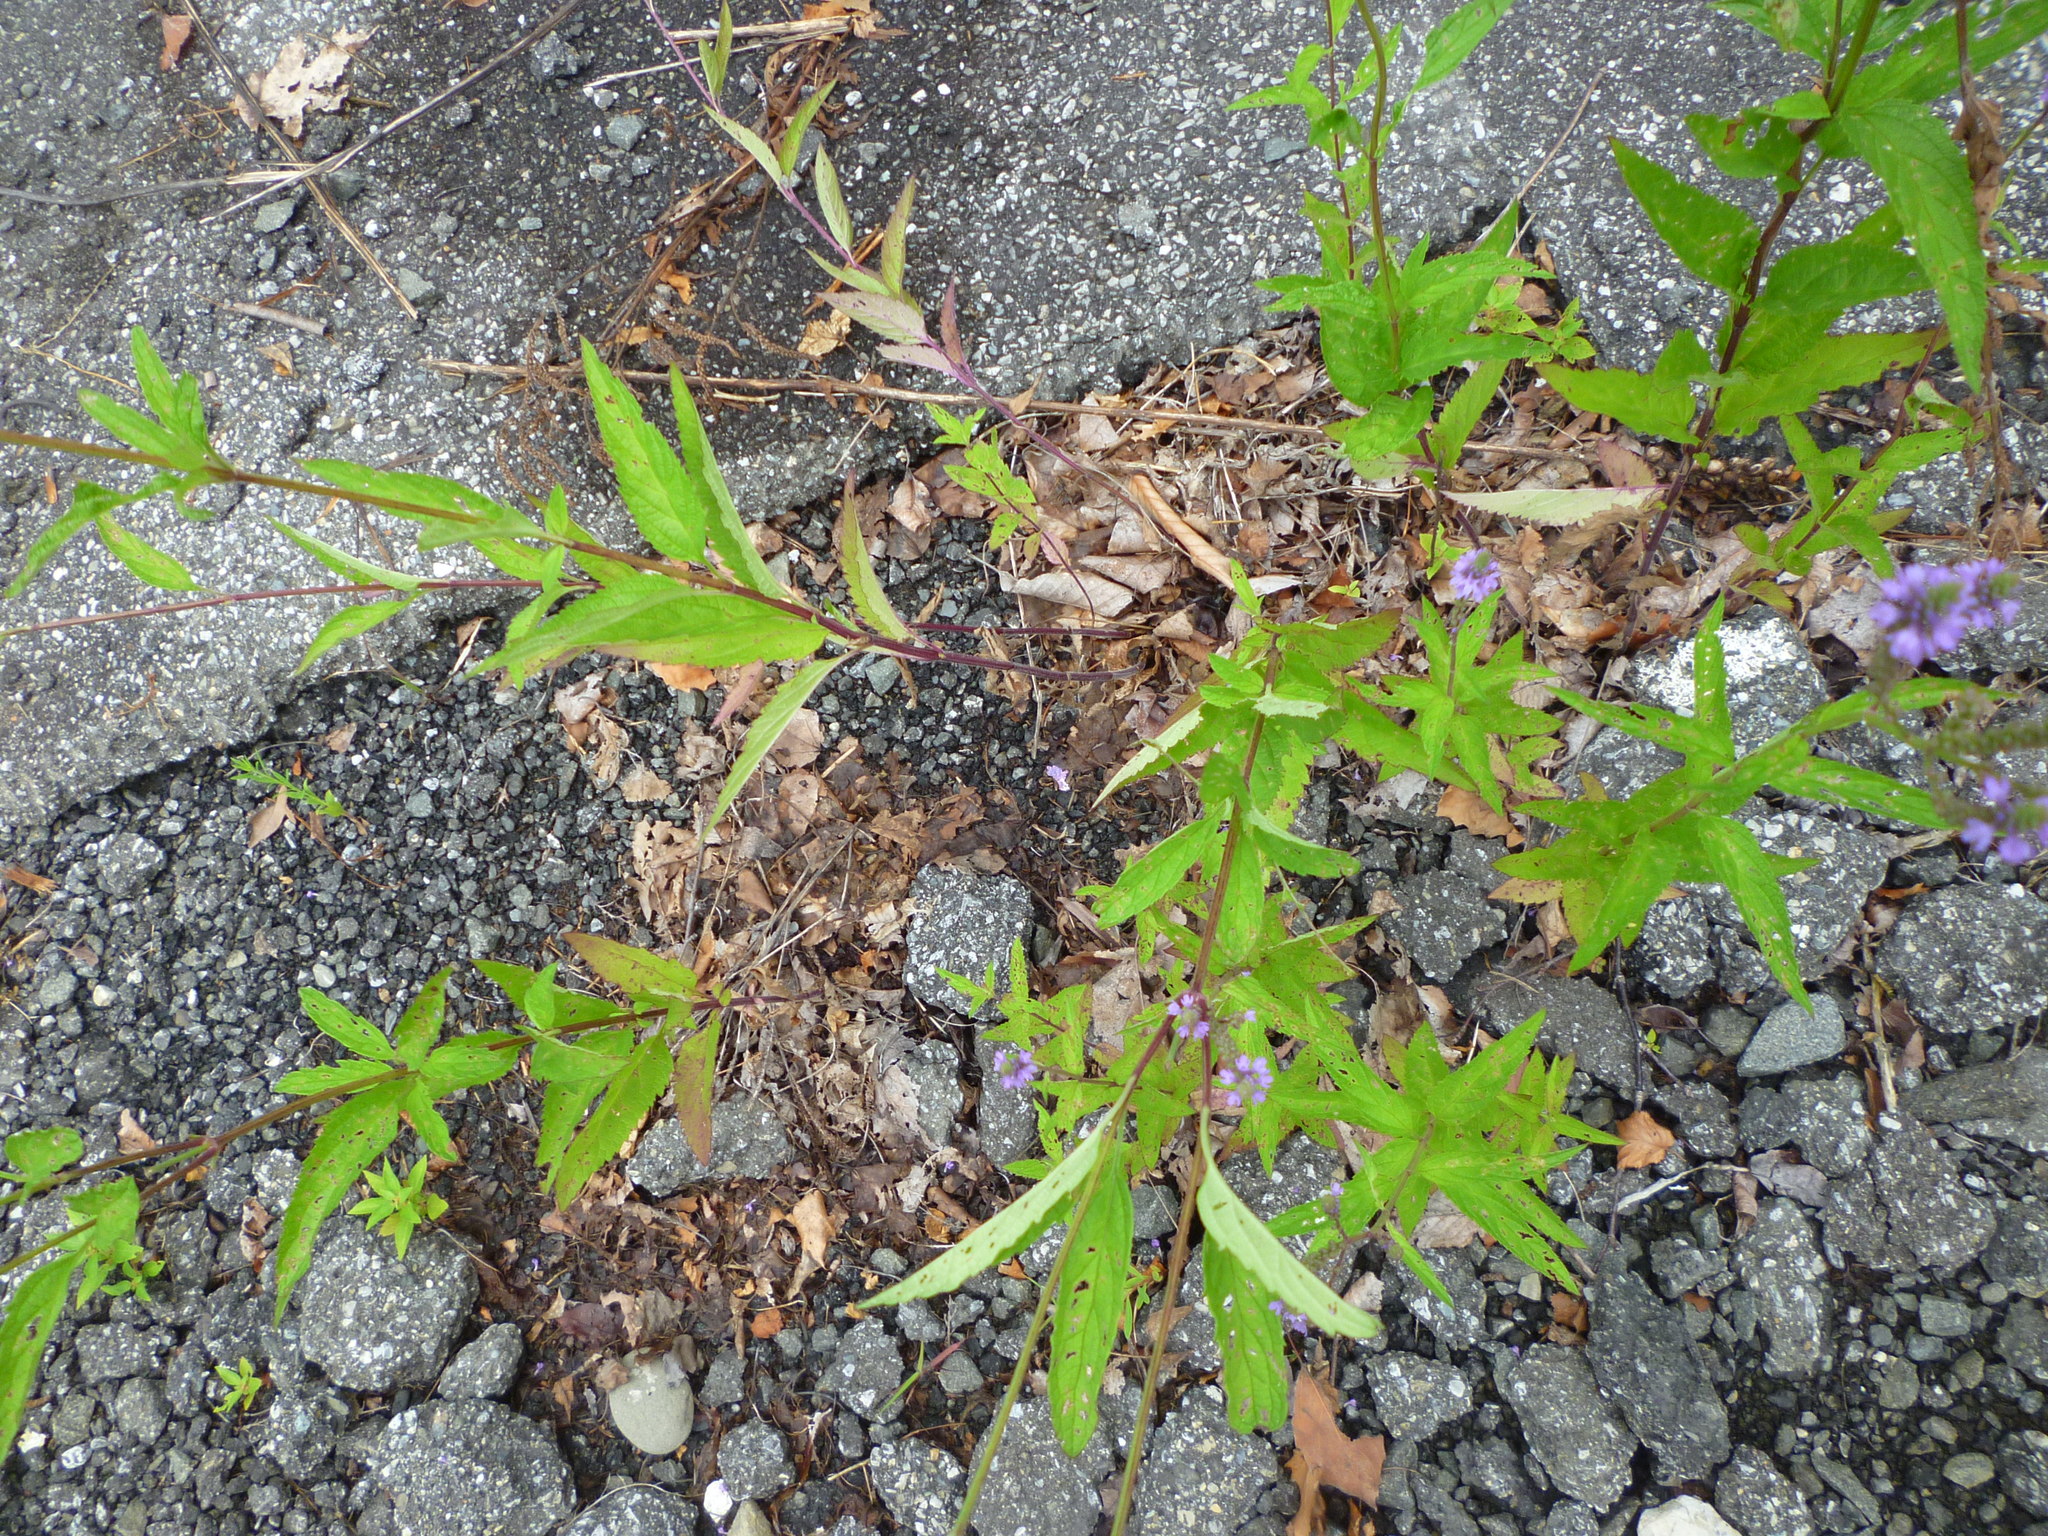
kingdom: Plantae
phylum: Tracheophyta
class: Magnoliopsida
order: Lamiales
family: Verbenaceae
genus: Verbena
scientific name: Verbena hastata
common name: American blue vervain
